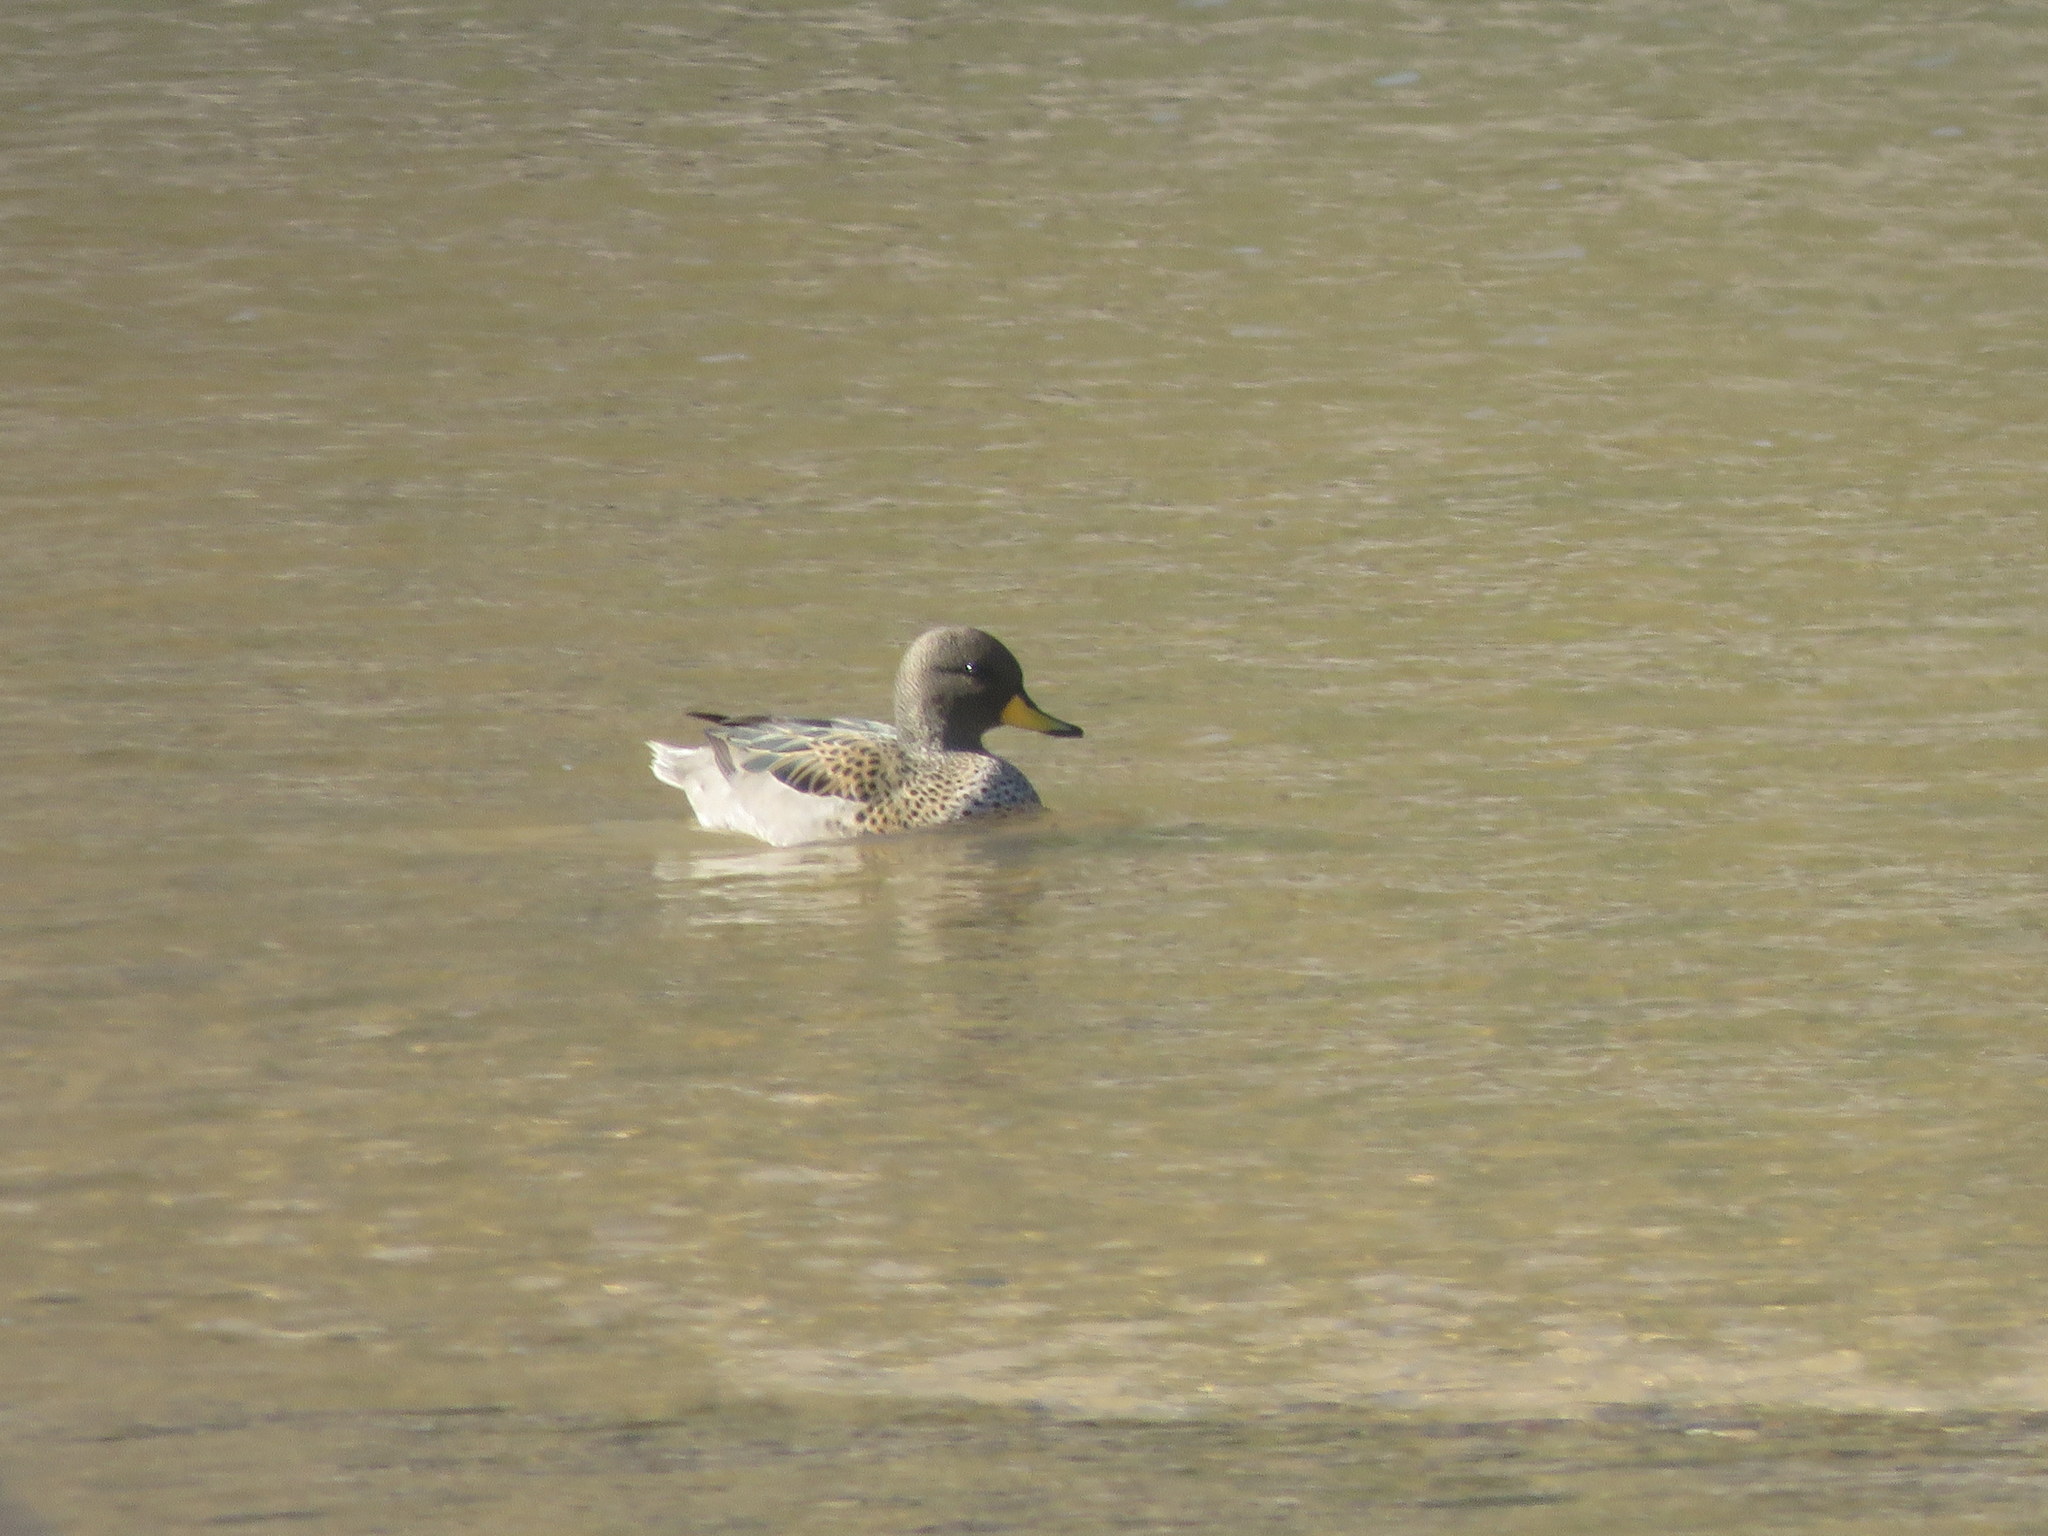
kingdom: Animalia
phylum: Chordata
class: Aves
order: Anseriformes
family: Anatidae
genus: Anas
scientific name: Anas flavirostris
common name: Yellow-billed teal
